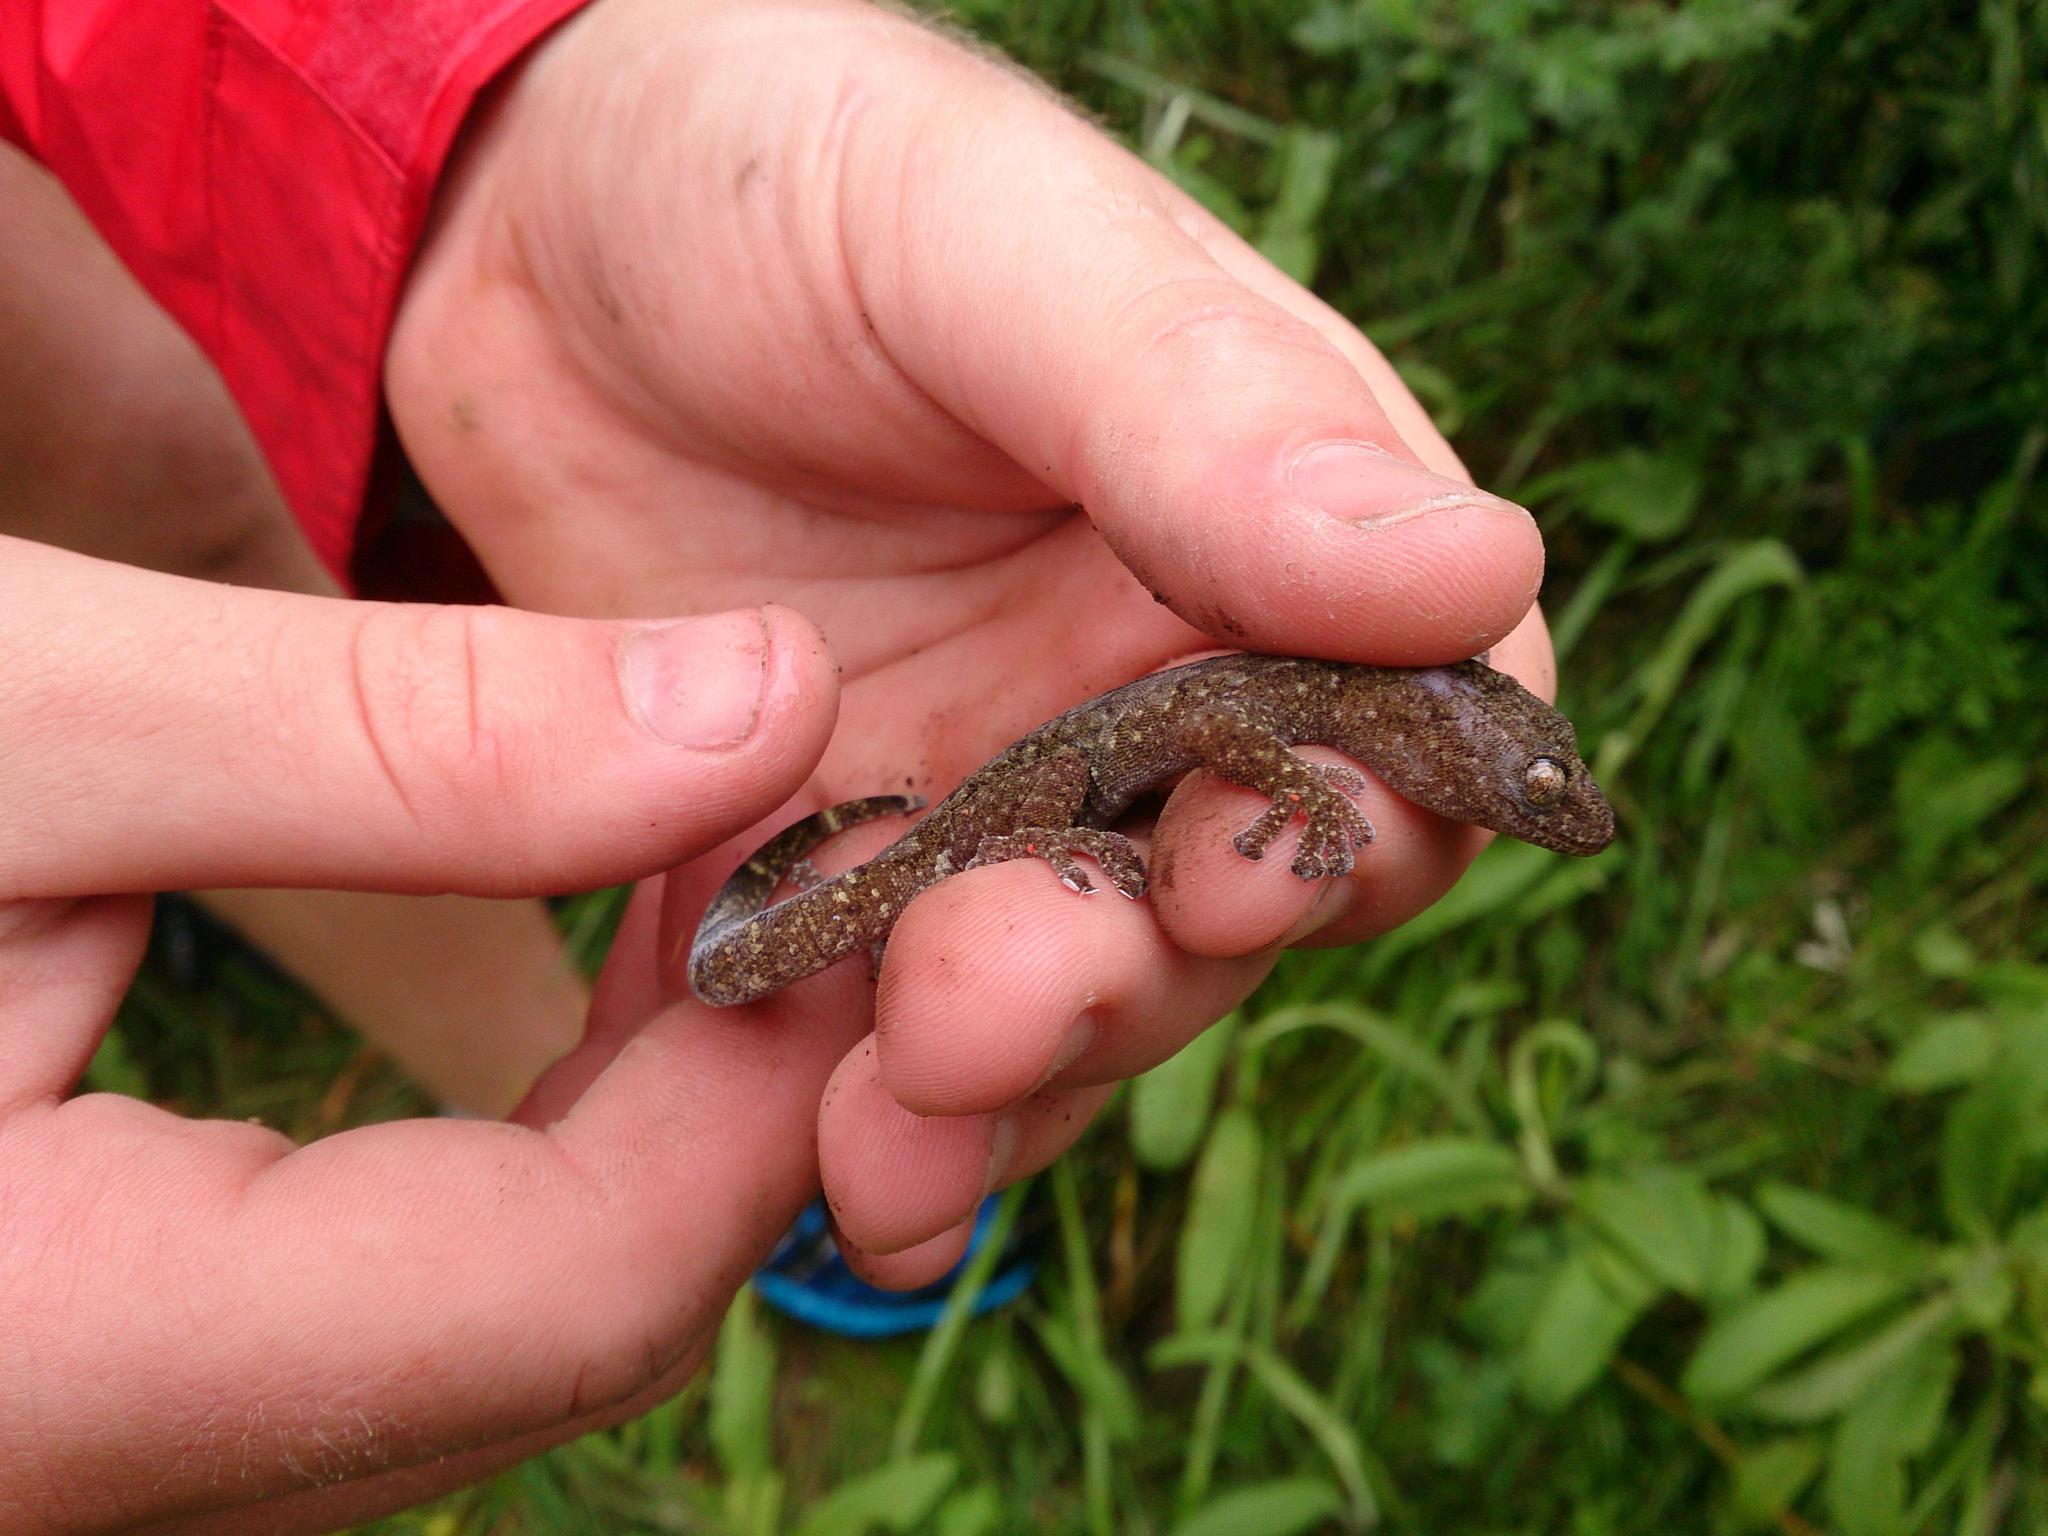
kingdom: Animalia
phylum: Chordata
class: Squamata
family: Gekkonidae
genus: Afroedura
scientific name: Afroedura nivaria
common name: Drakensberg rock gecko
